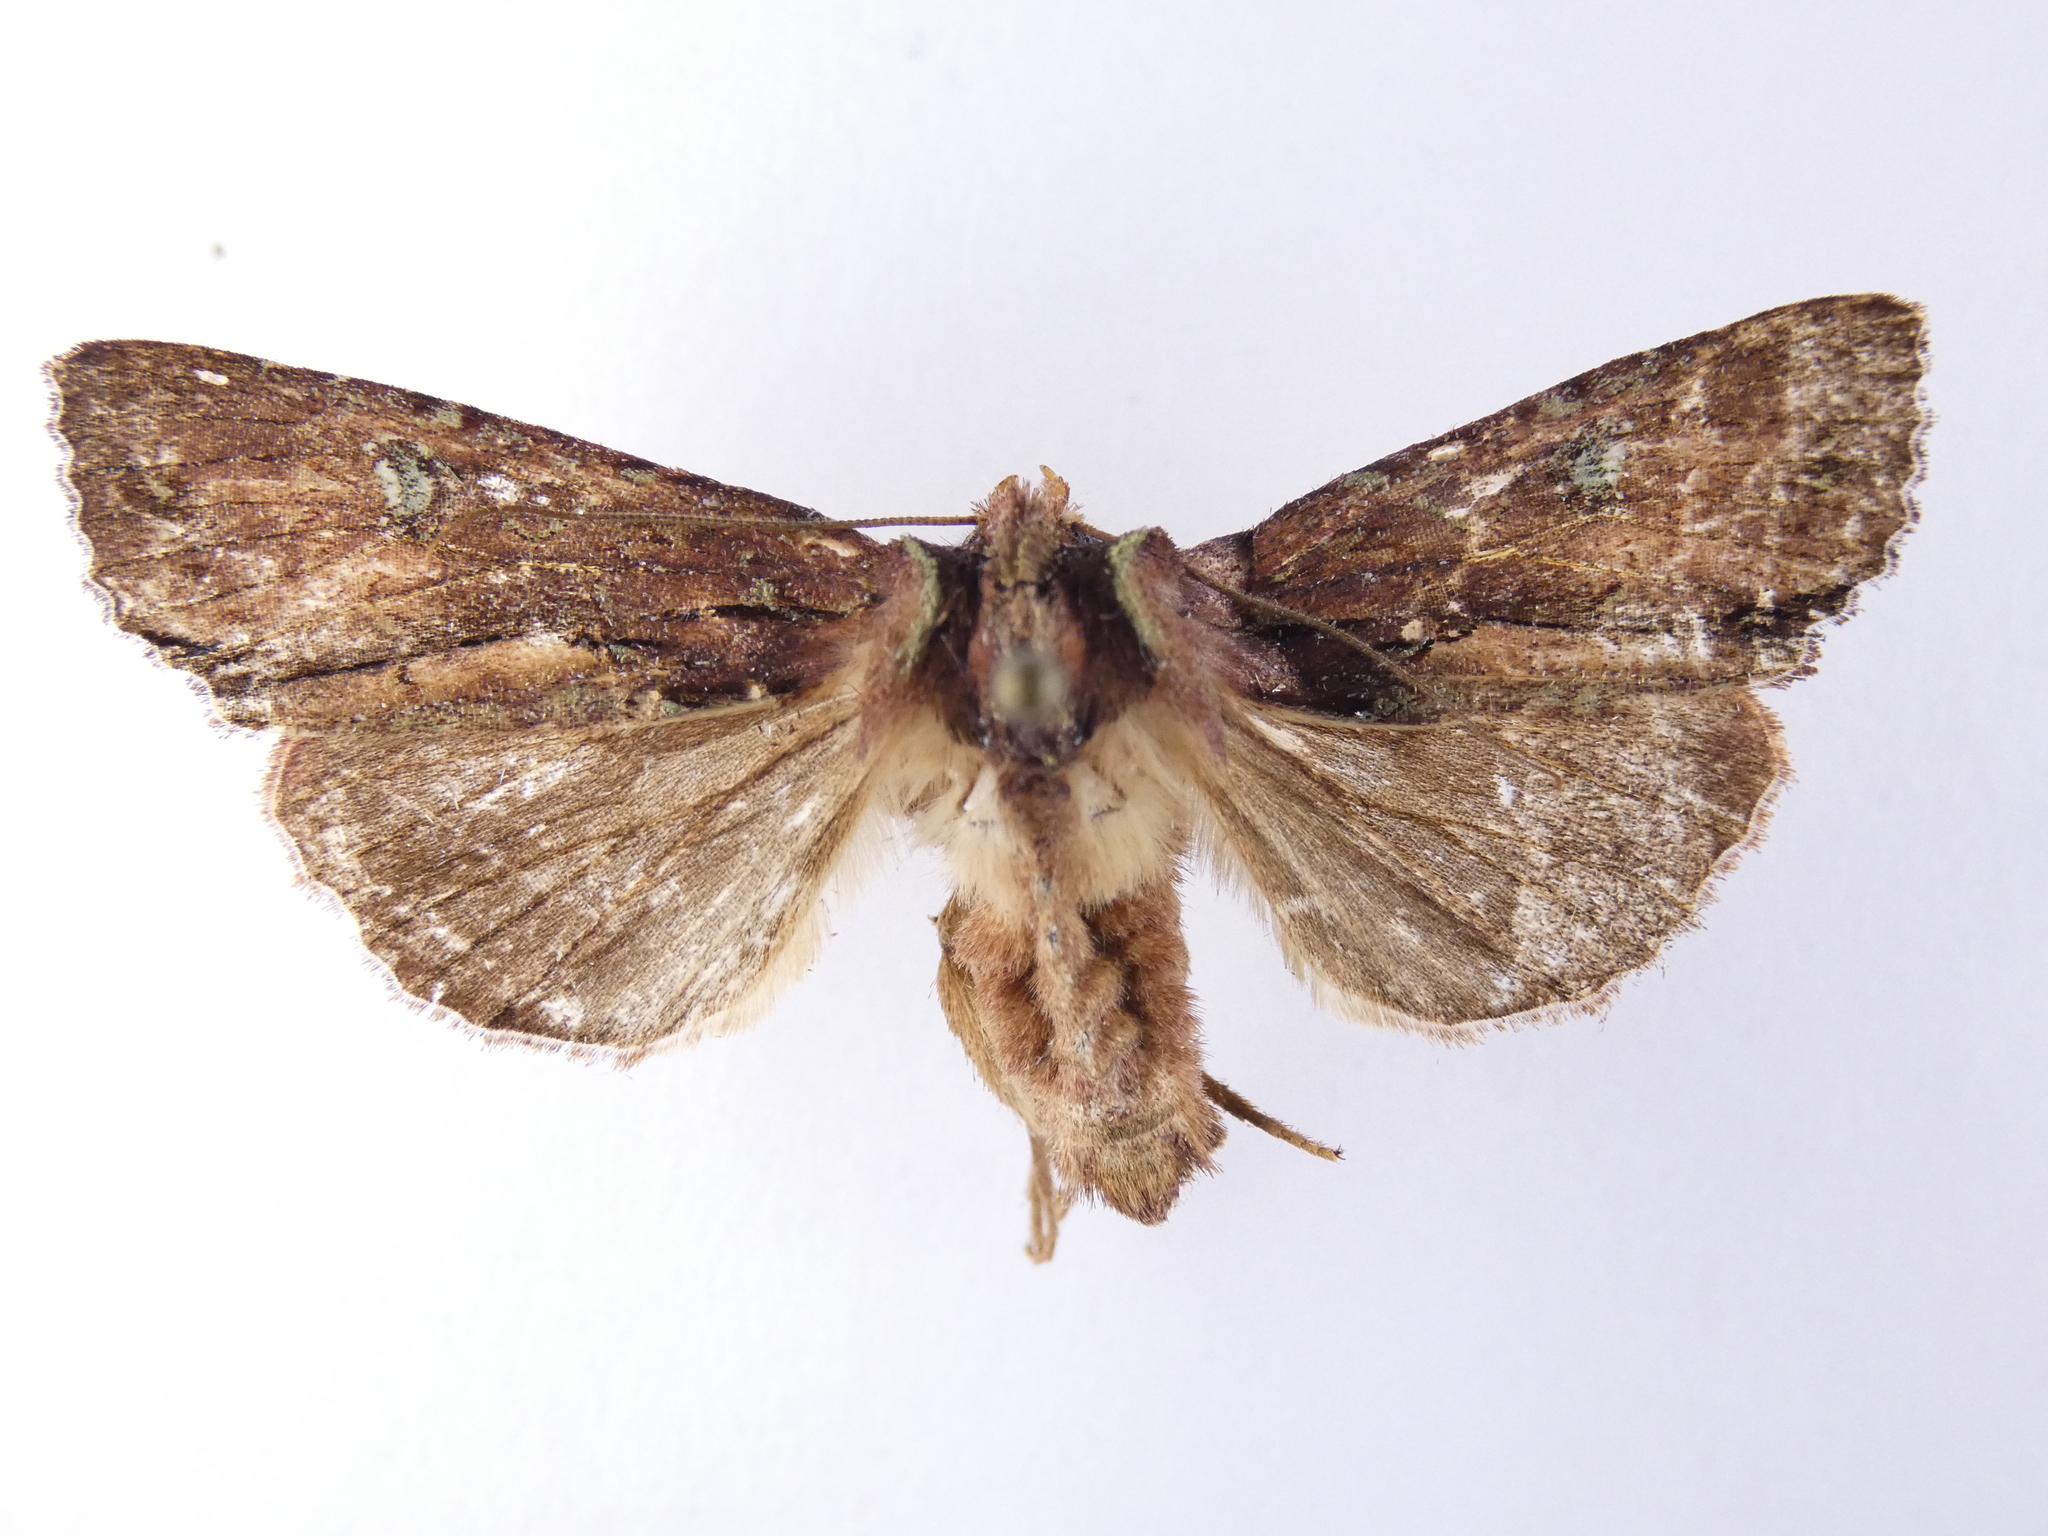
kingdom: Animalia
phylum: Arthropoda
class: Insecta
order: Lepidoptera
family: Noctuidae
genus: Meterana
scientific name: Meterana diatmeta
